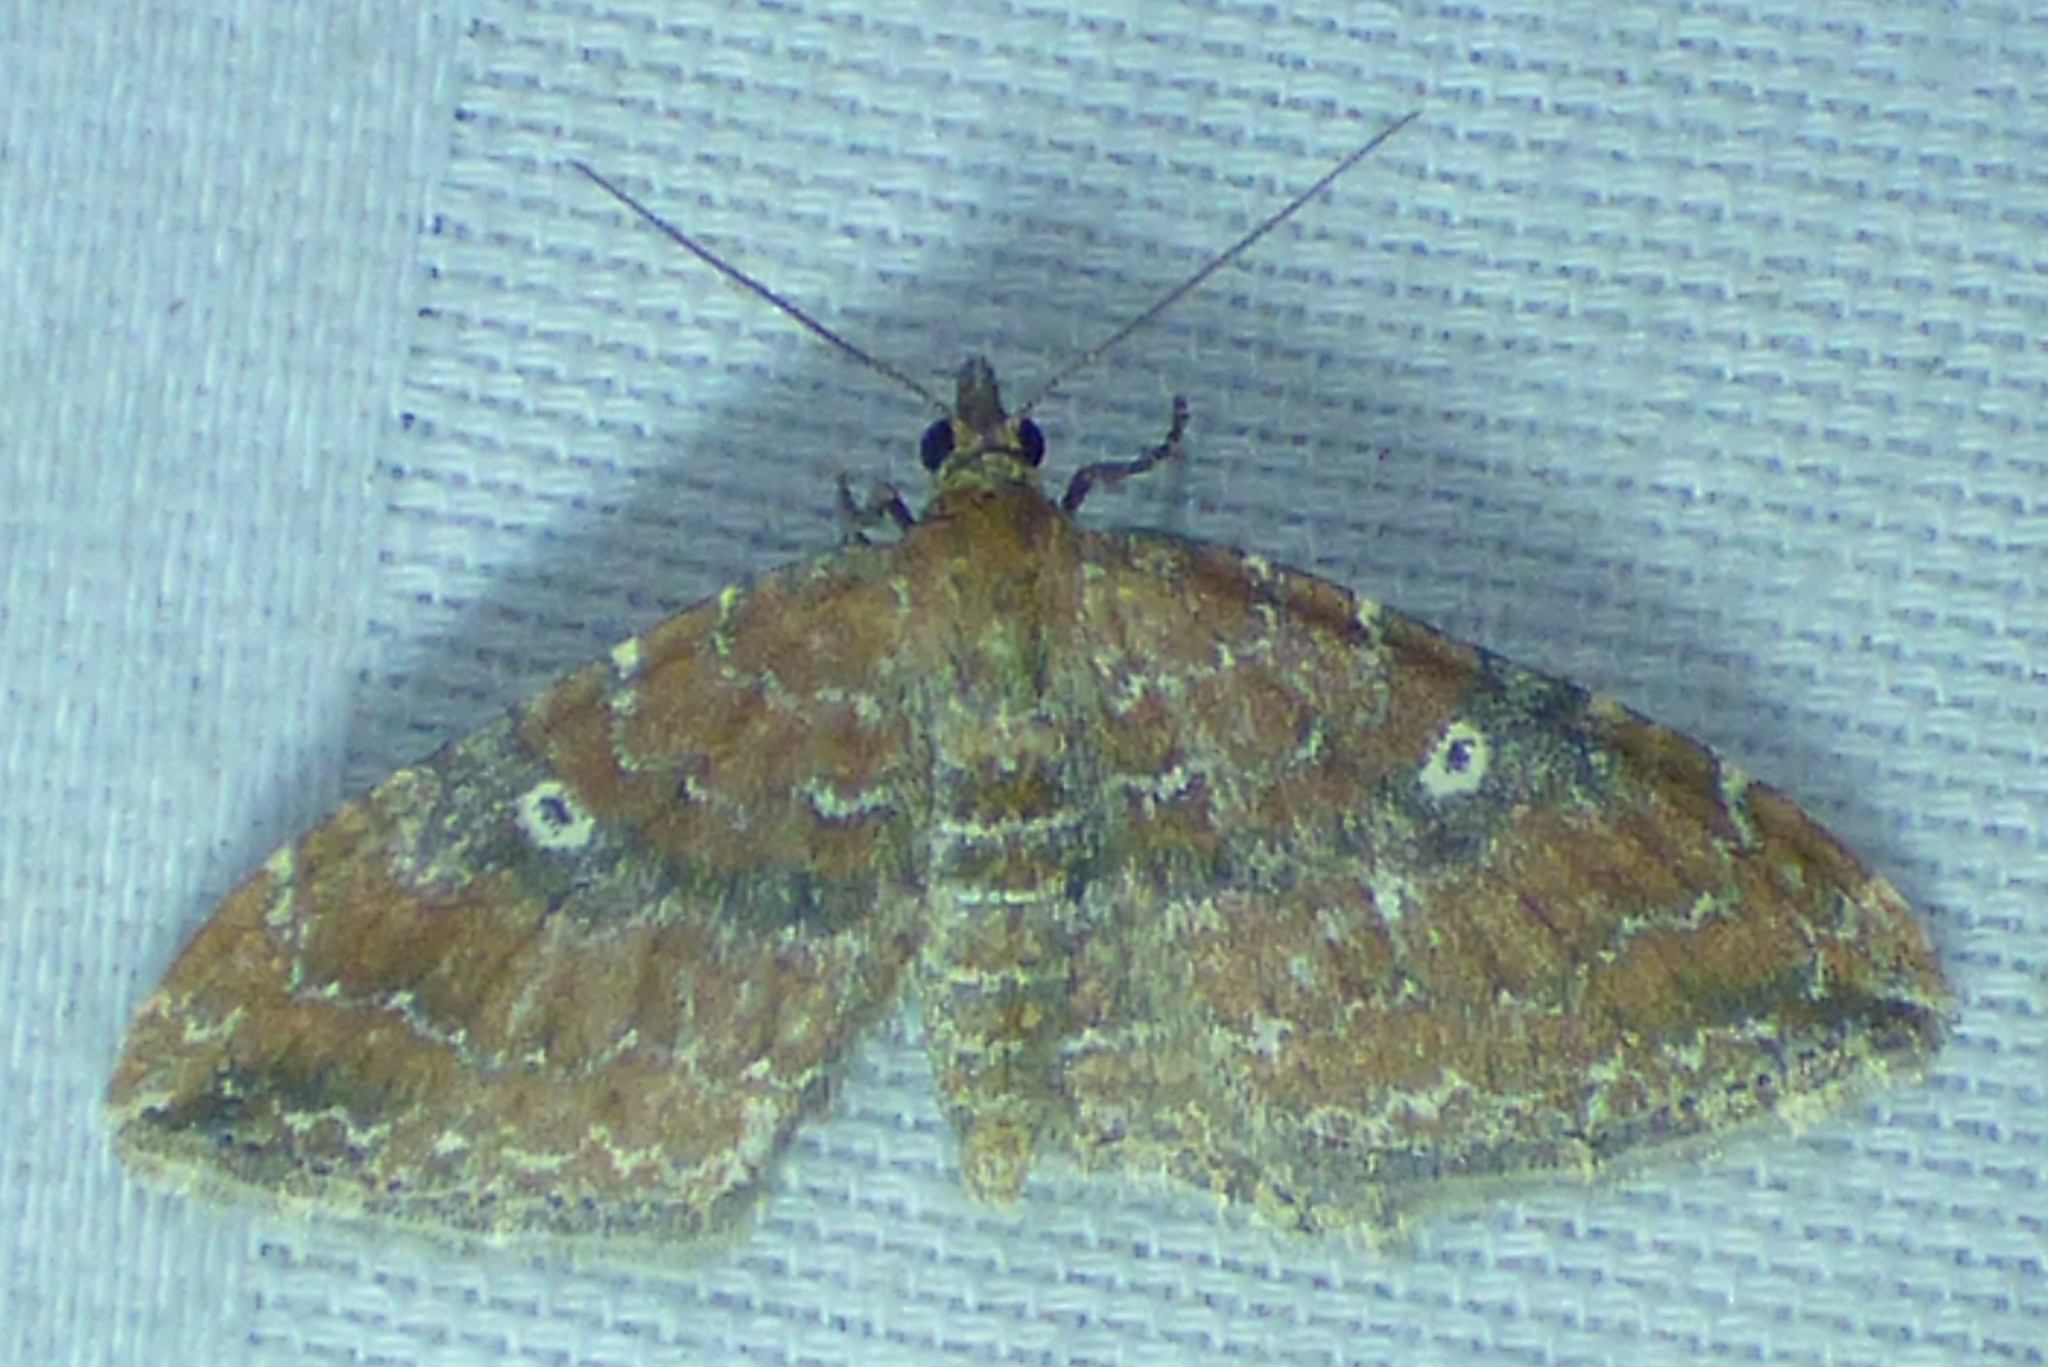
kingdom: Animalia
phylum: Arthropoda
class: Insecta
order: Lepidoptera
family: Geometridae
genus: Orthonama
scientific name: Orthonama obstipata
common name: The gem
